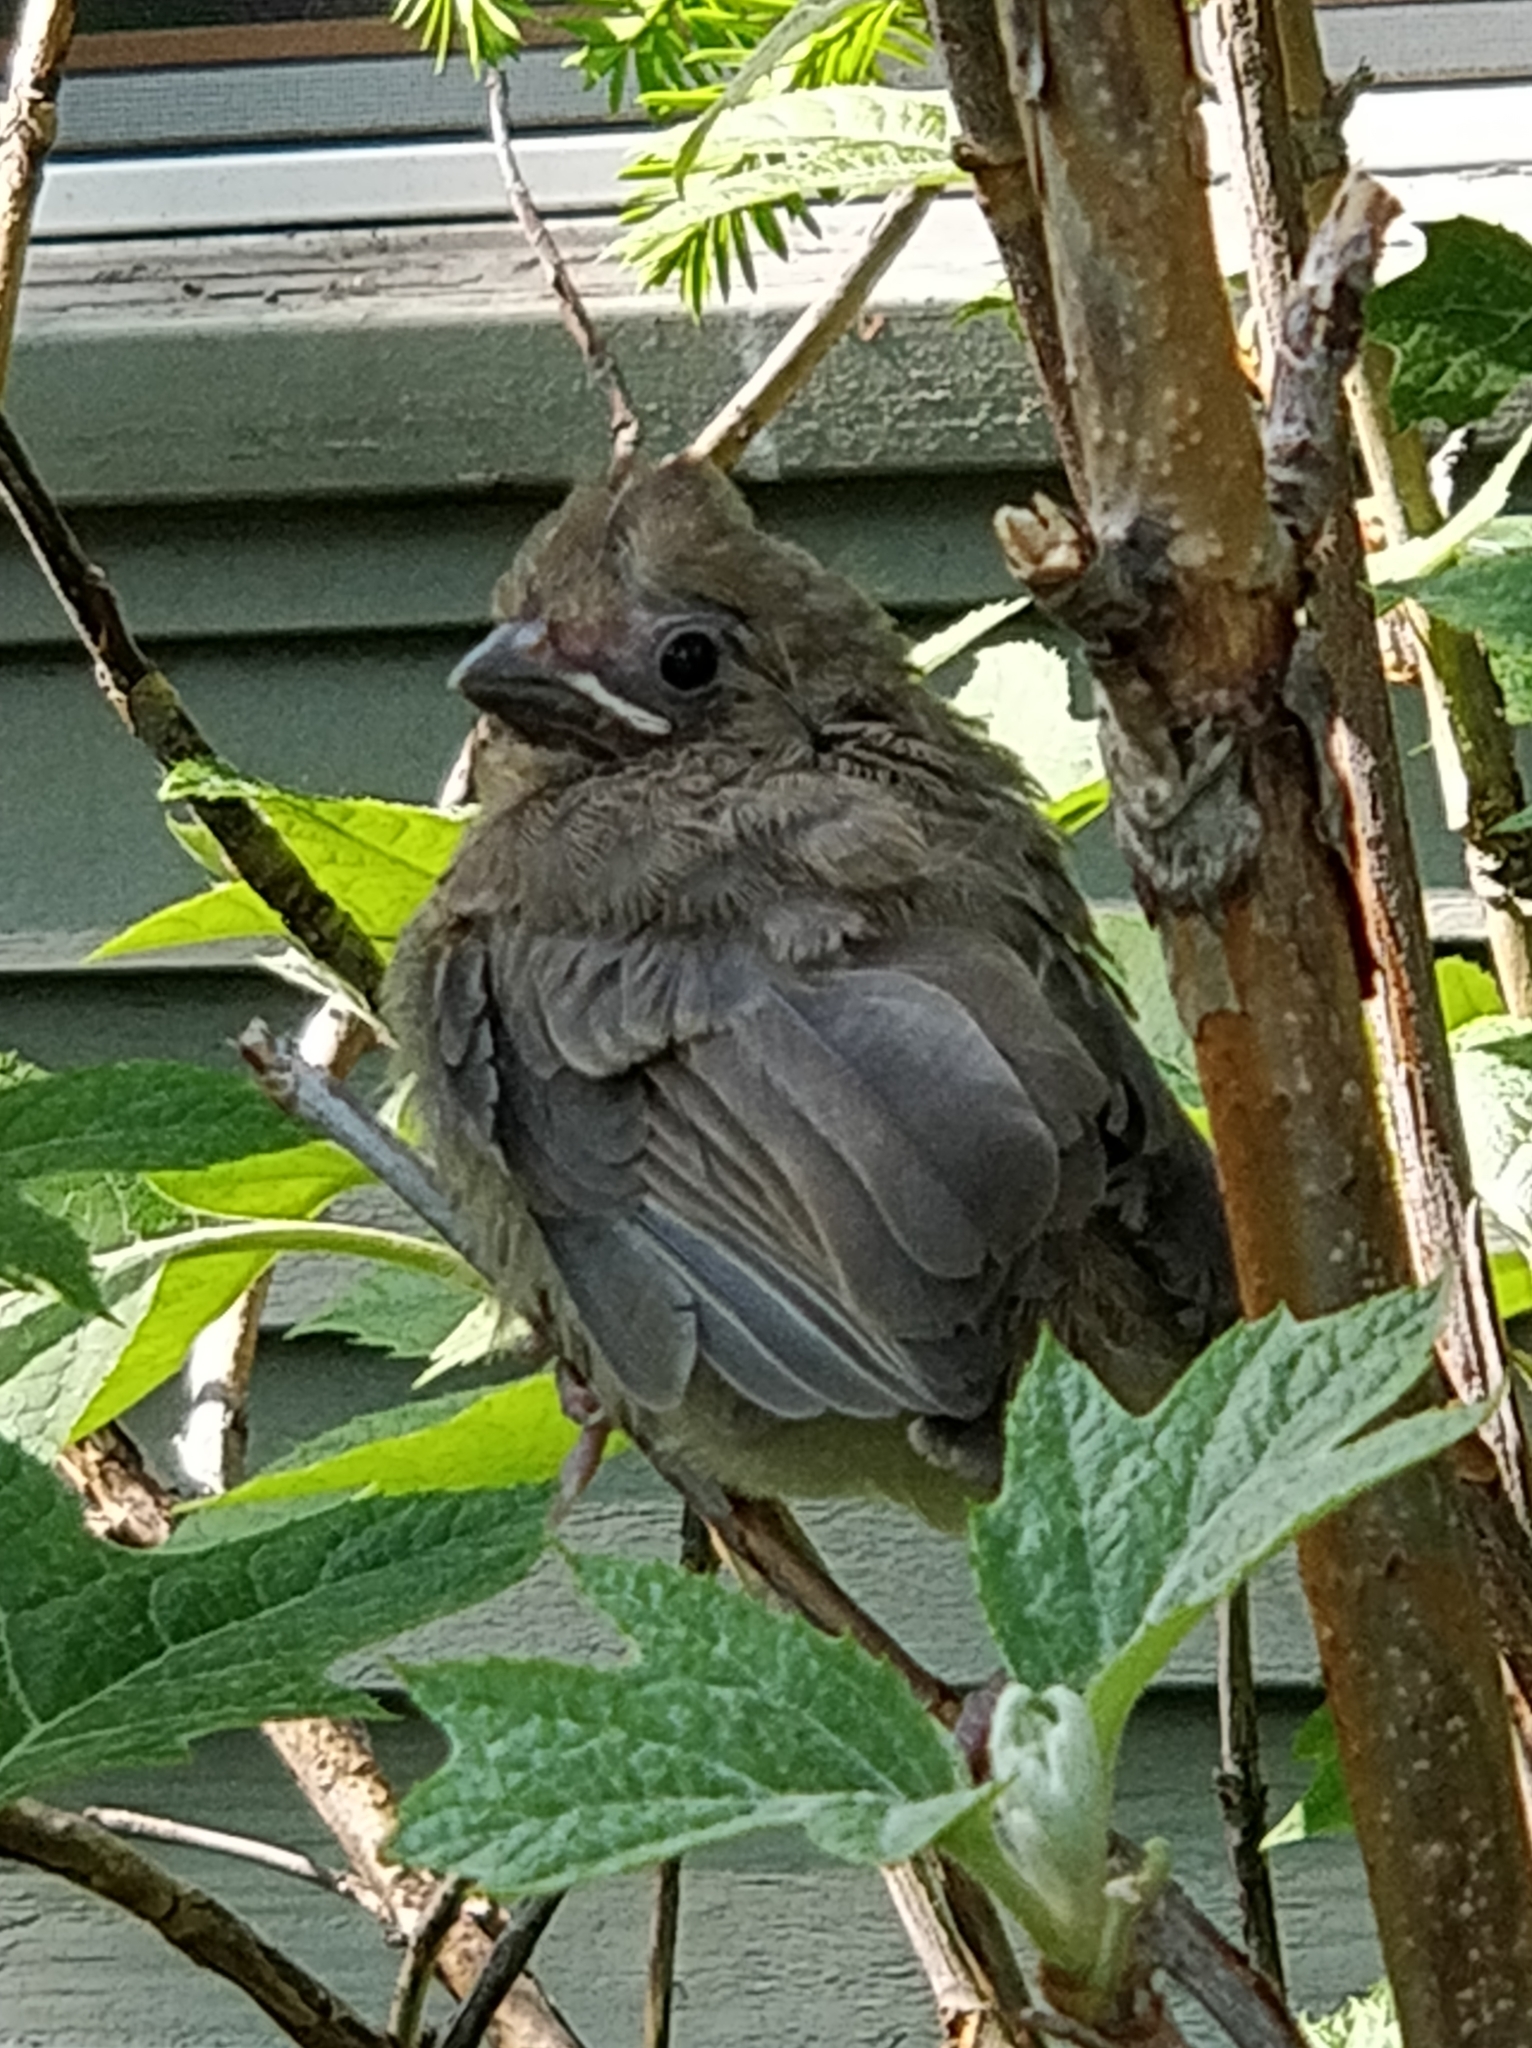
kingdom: Animalia
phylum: Chordata
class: Aves
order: Passeriformes
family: Cardinalidae
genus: Cardinalis
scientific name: Cardinalis cardinalis
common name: Northern cardinal
